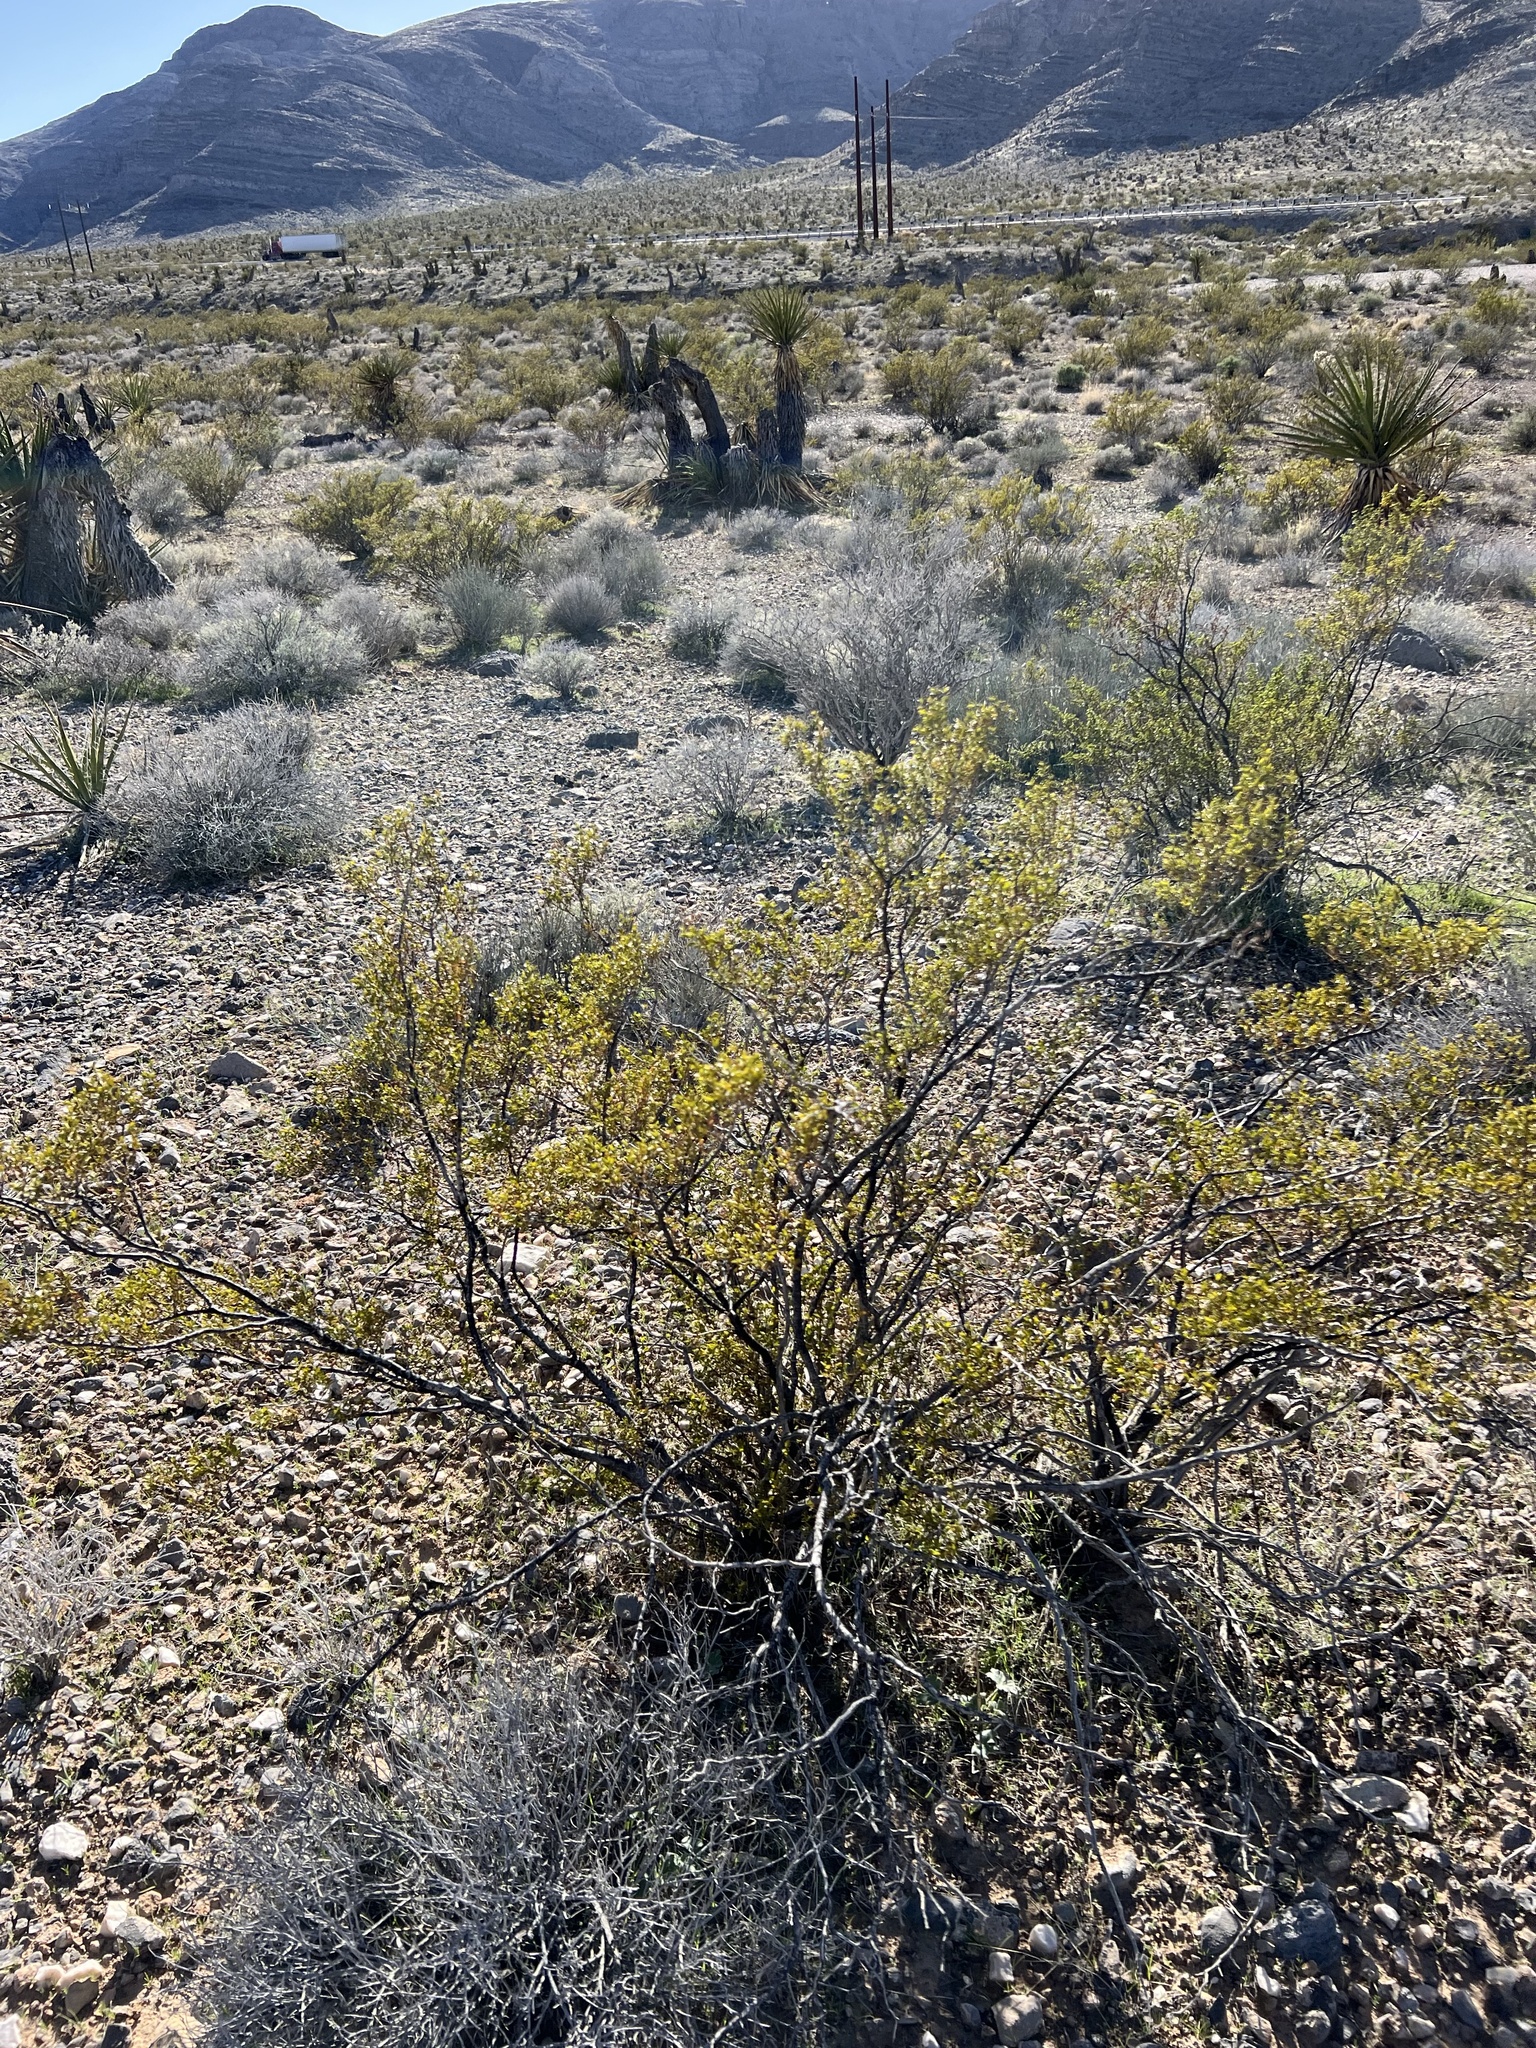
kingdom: Plantae
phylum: Tracheophyta
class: Magnoliopsida
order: Zygophyllales
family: Zygophyllaceae
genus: Larrea
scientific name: Larrea tridentata
